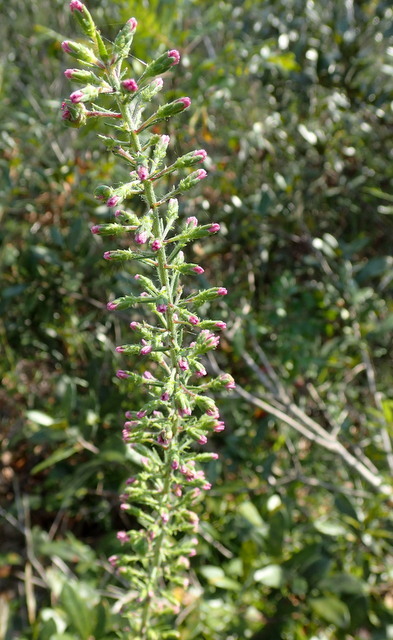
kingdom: Plantae
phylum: Tracheophyta
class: Magnoliopsida
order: Asterales
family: Asteraceae
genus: Liatris
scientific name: Liatris gracilis
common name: Slender gayfeather
